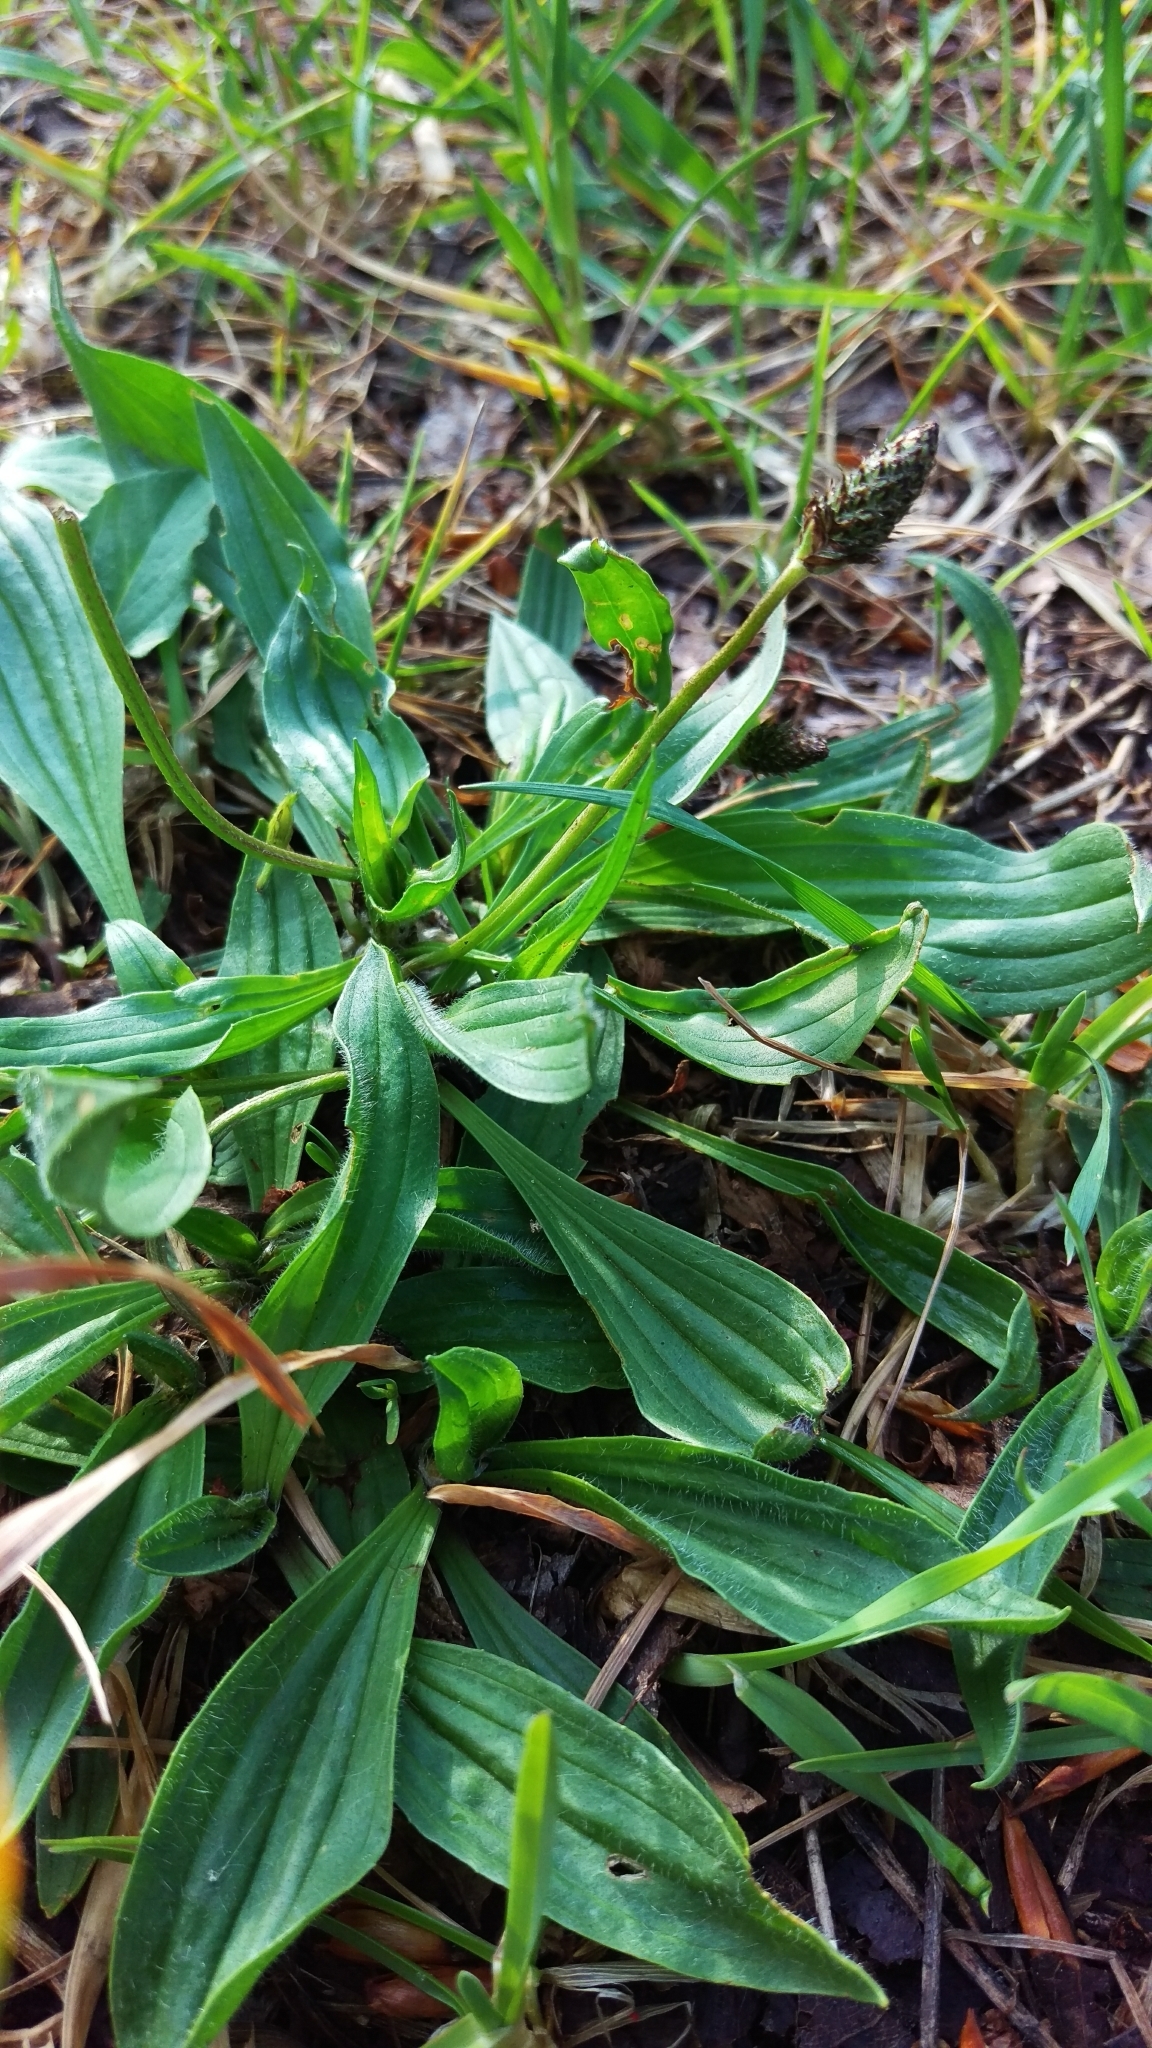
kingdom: Plantae
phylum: Tracheophyta
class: Magnoliopsida
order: Lamiales
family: Plantaginaceae
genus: Plantago
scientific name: Plantago lanceolata
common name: Ribwort plantain
